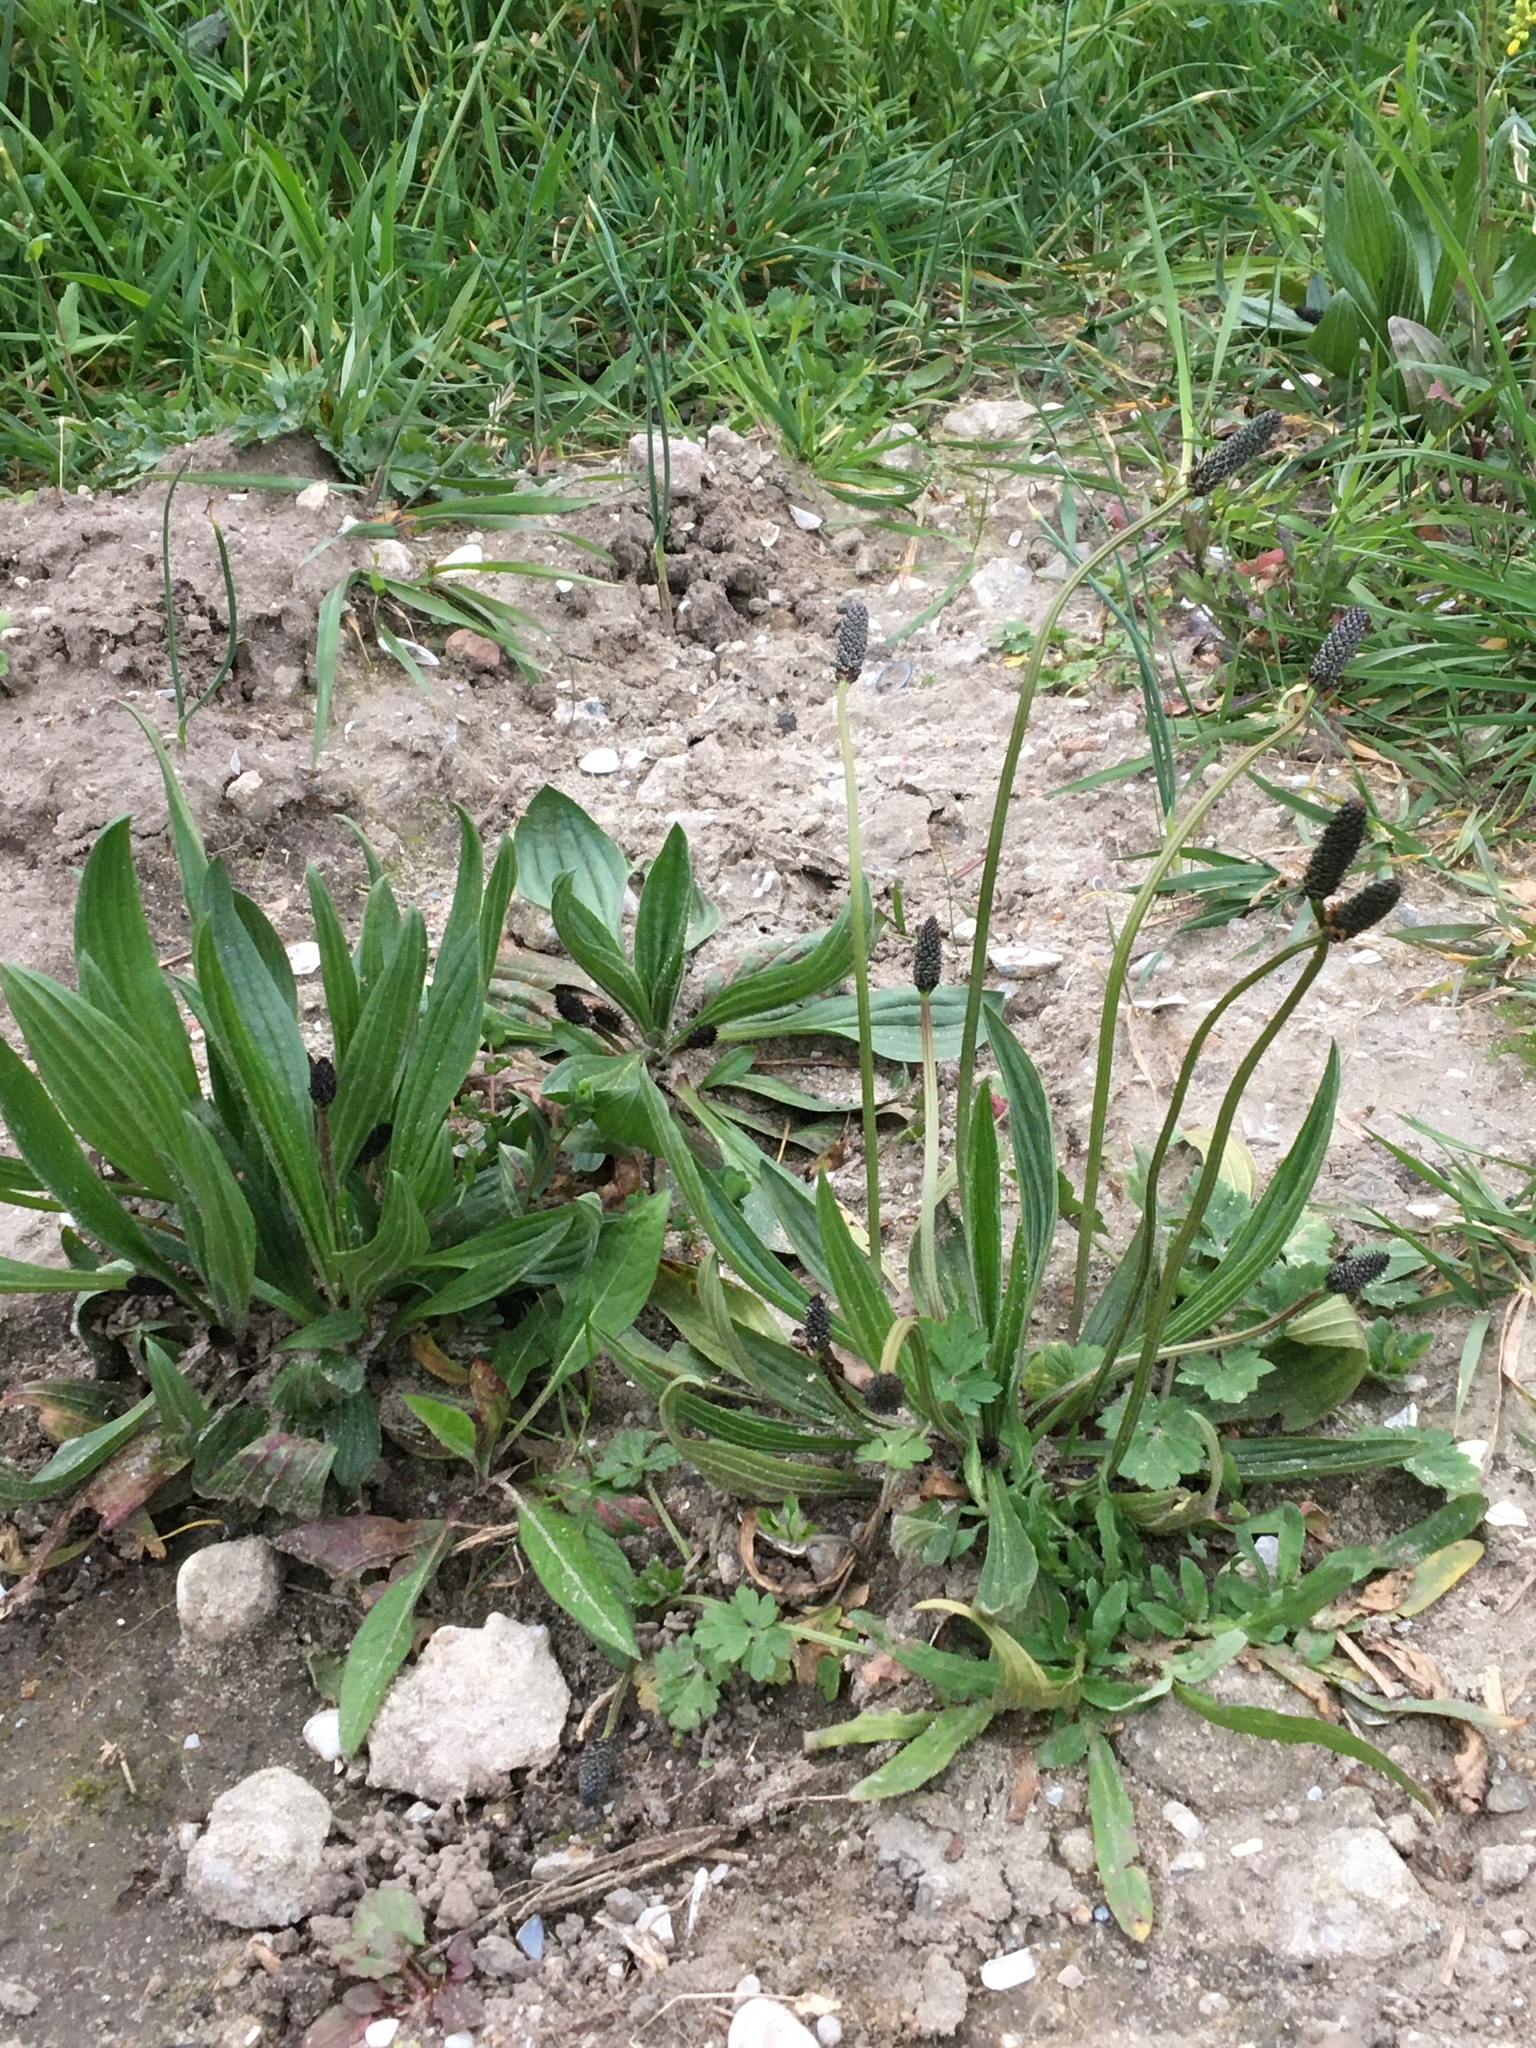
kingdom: Plantae
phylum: Tracheophyta
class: Magnoliopsida
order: Lamiales
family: Plantaginaceae
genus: Plantago
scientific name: Plantago lanceolata
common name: Ribwort plantain
